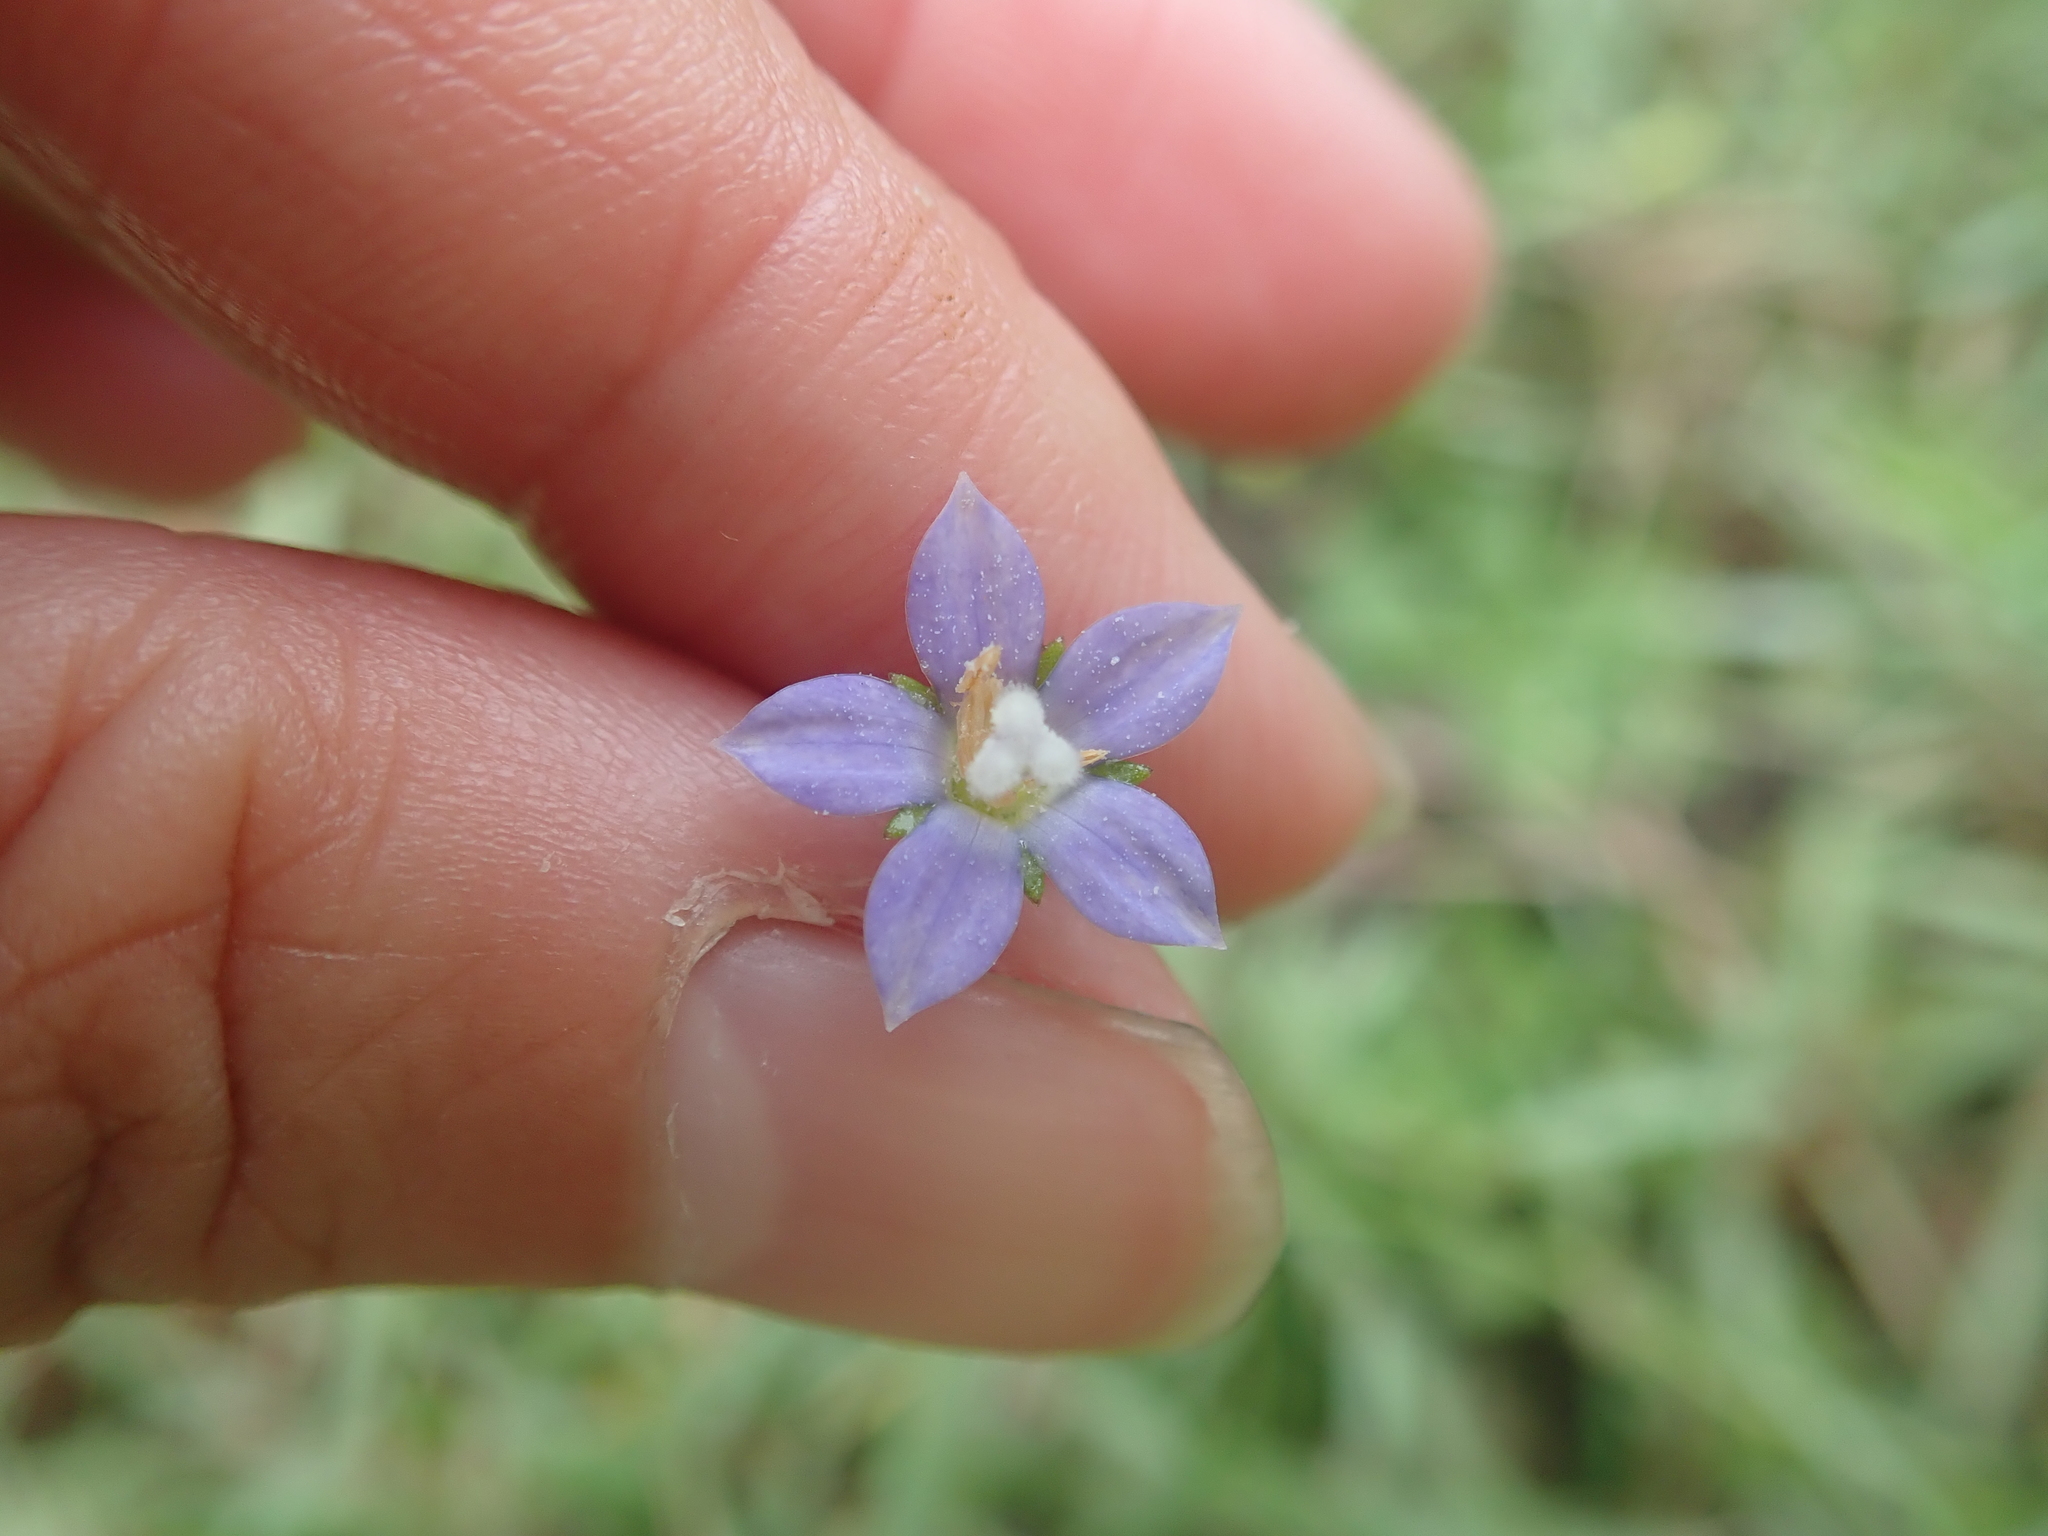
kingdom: Plantae
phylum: Tracheophyta
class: Magnoliopsida
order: Asterales
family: Campanulaceae
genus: Wahlenbergia
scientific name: Wahlenbergia marginata
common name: Southern rockbell
